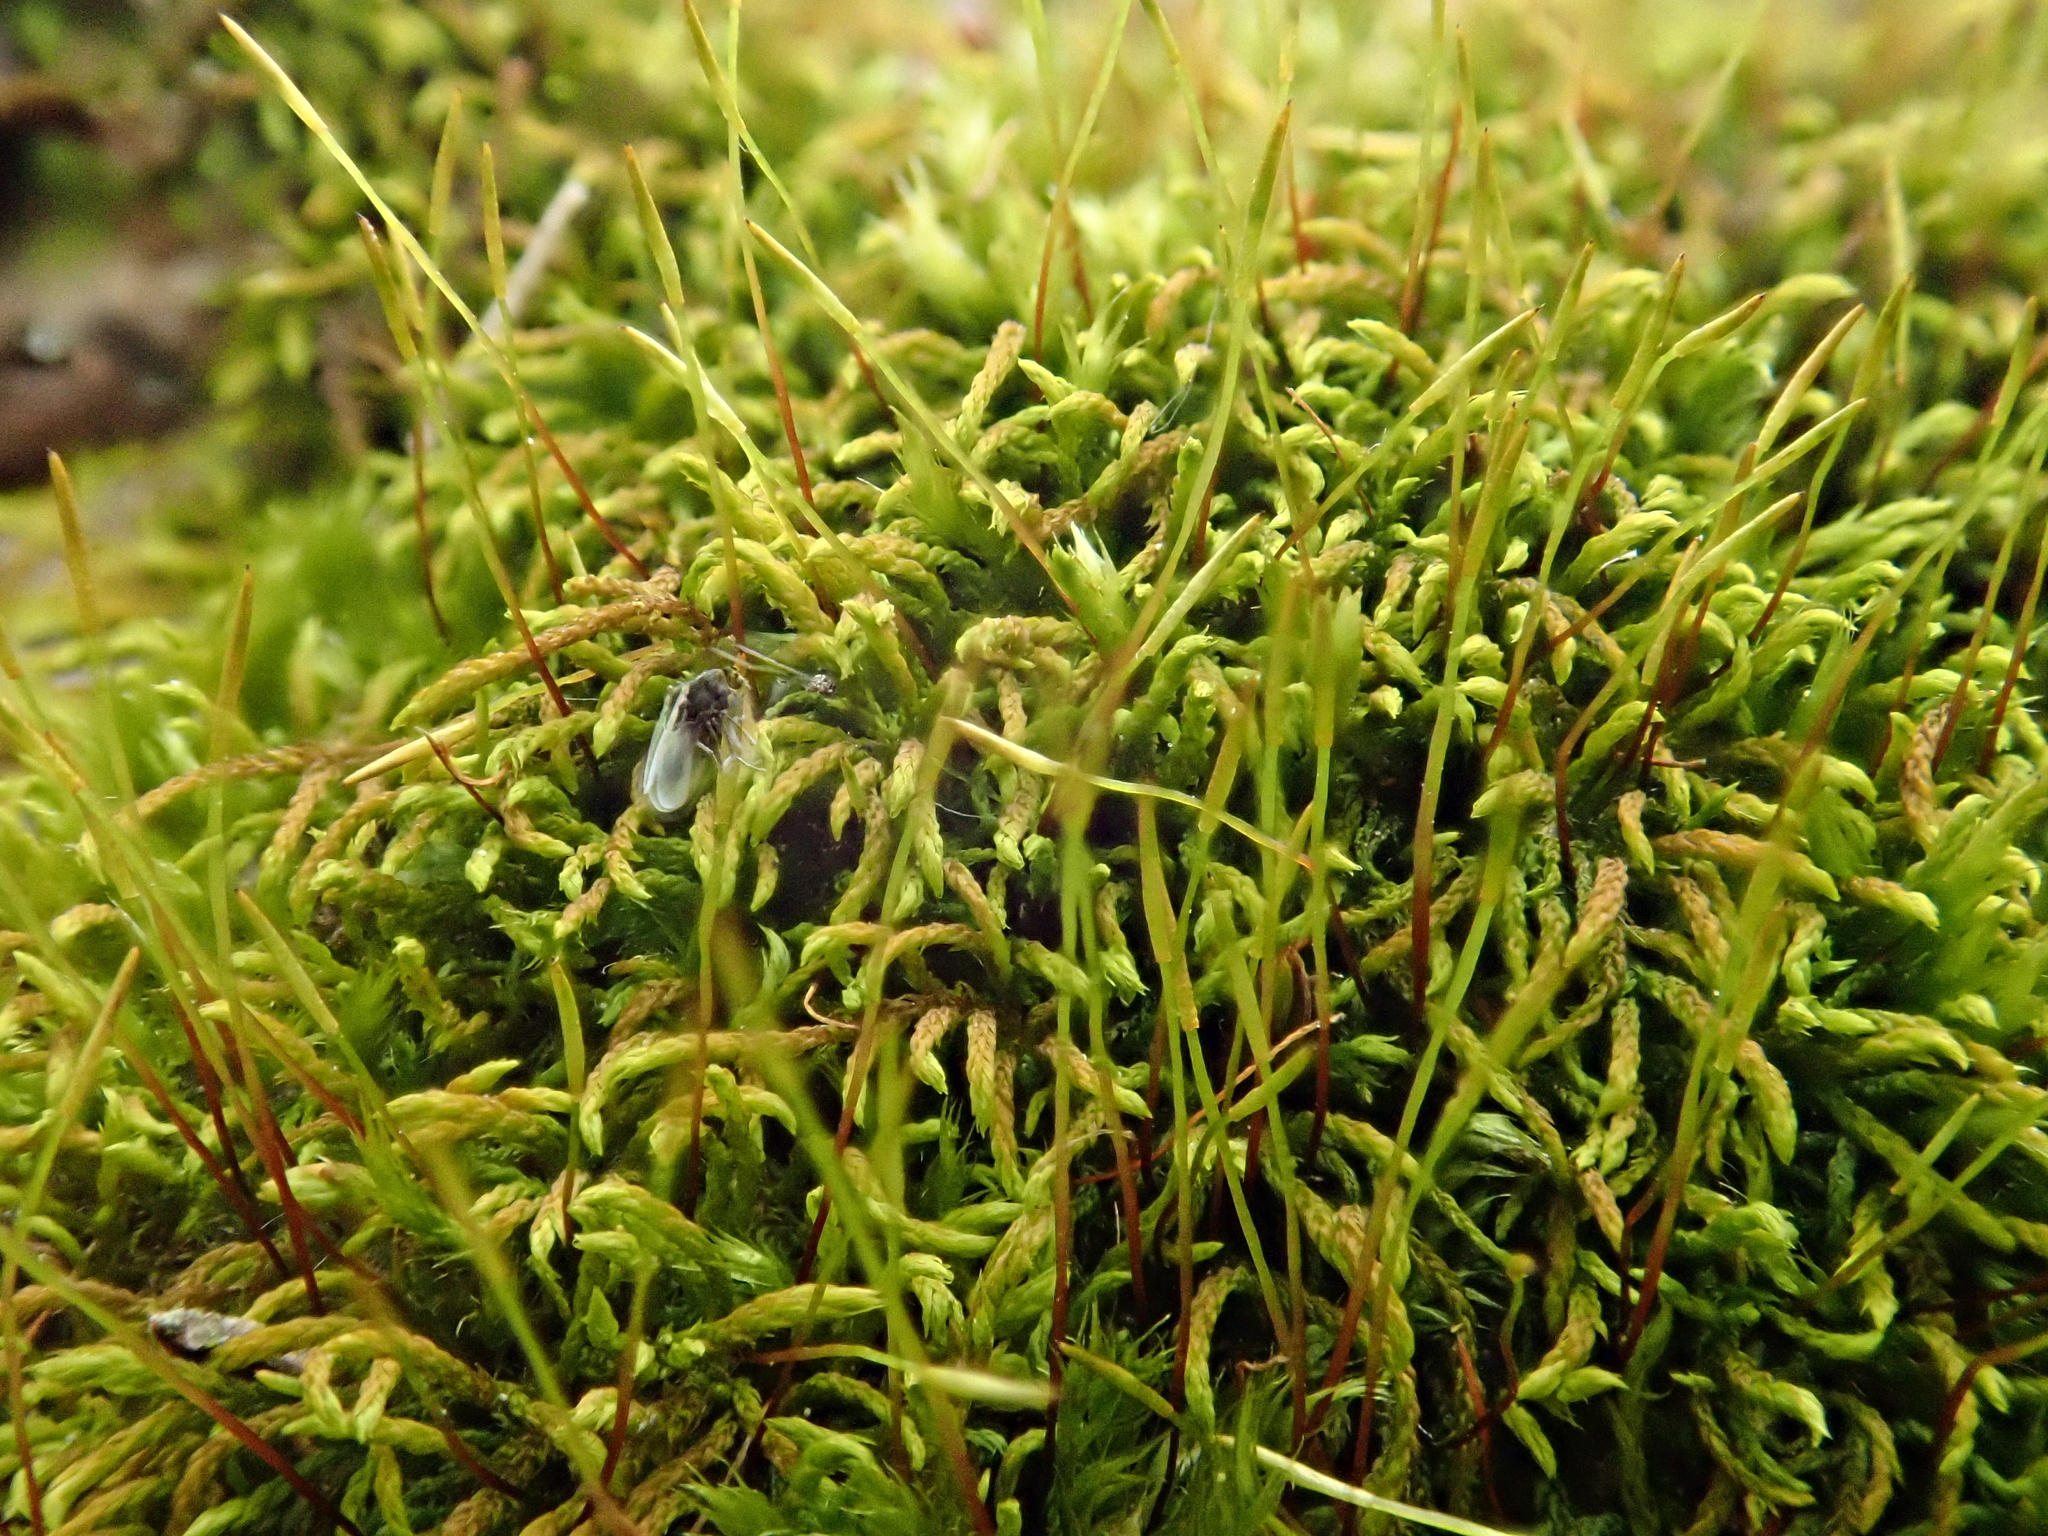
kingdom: Plantae
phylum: Bryophyta
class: Bryopsida
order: Hypnales
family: Leskeaceae
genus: Leskea
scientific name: Leskea polycarpa
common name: Many-fruited leske's moss
